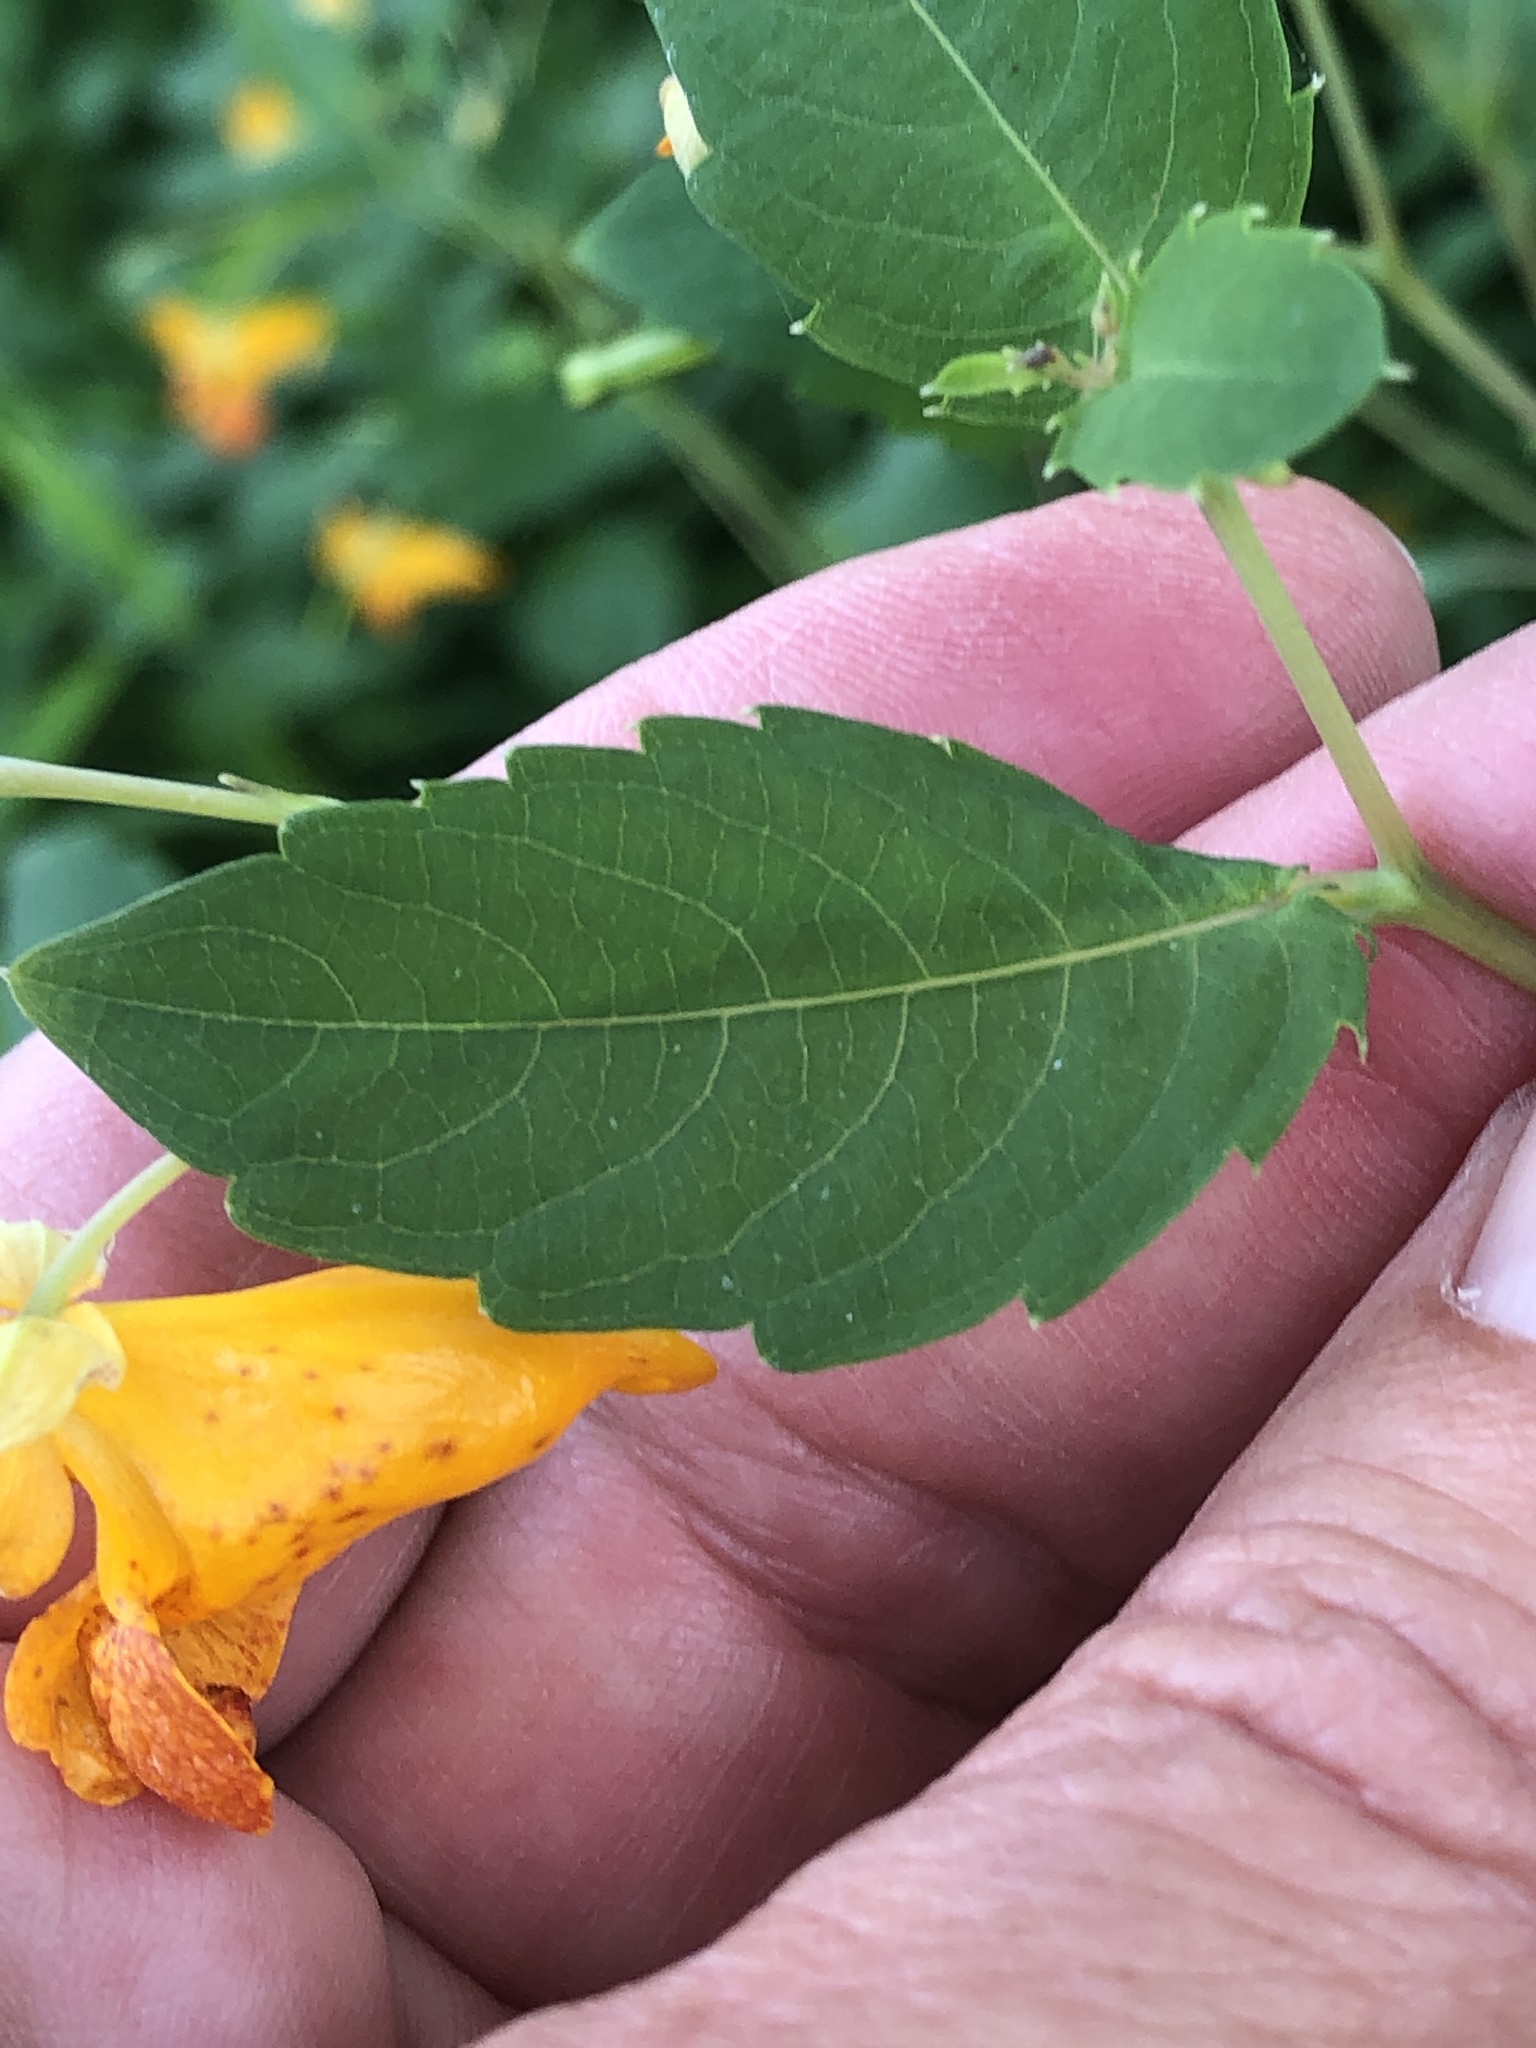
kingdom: Plantae
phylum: Tracheophyta
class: Magnoliopsida
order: Ericales
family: Balsaminaceae
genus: Impatiens
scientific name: Impatiens capensis
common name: Orange balsam
